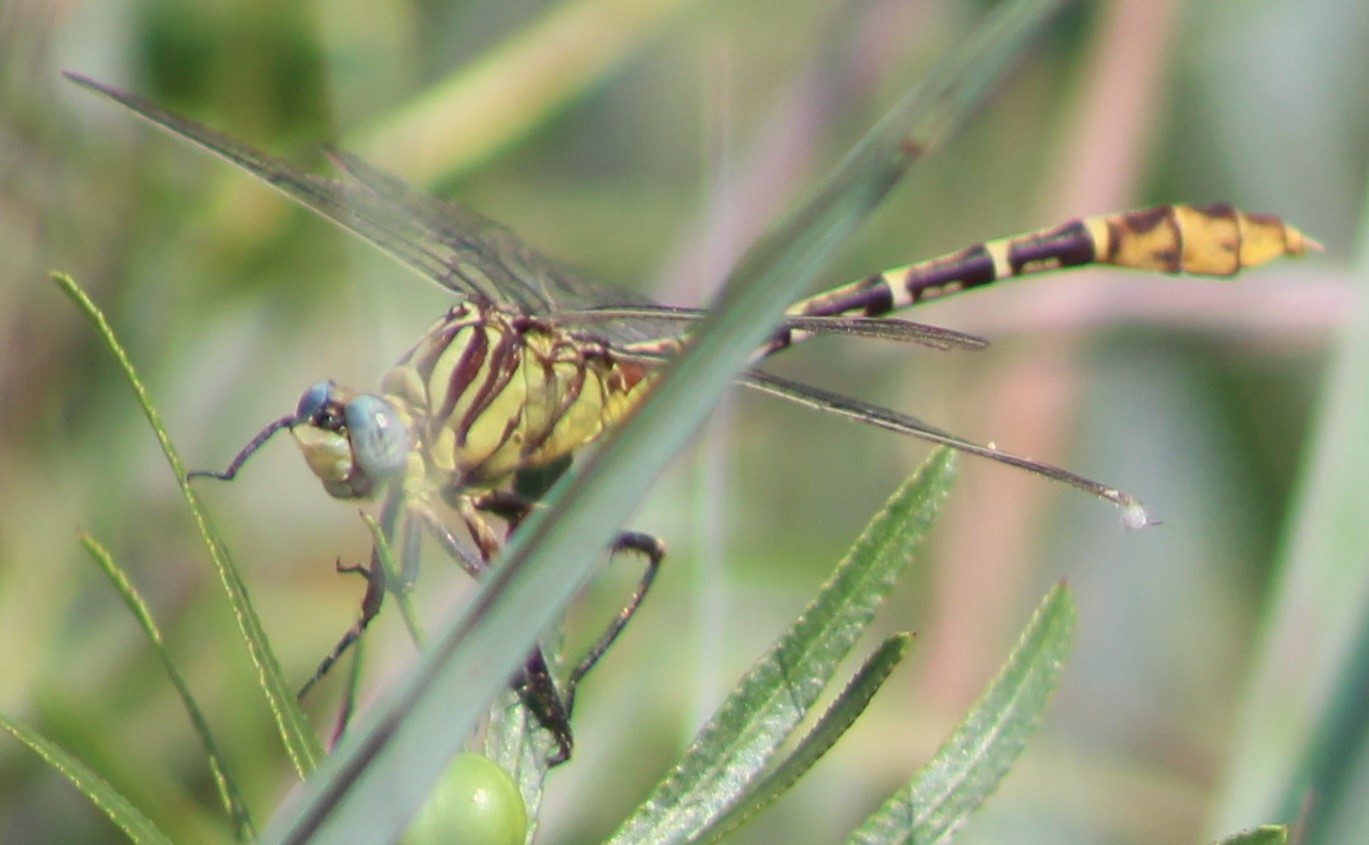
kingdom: Animalia
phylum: Arthropoda
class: Insecta
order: Odonata
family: Gomphidae
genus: Dromogomphus
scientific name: Dromogomphus spoliatus
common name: Flag-tailed spinyleg
